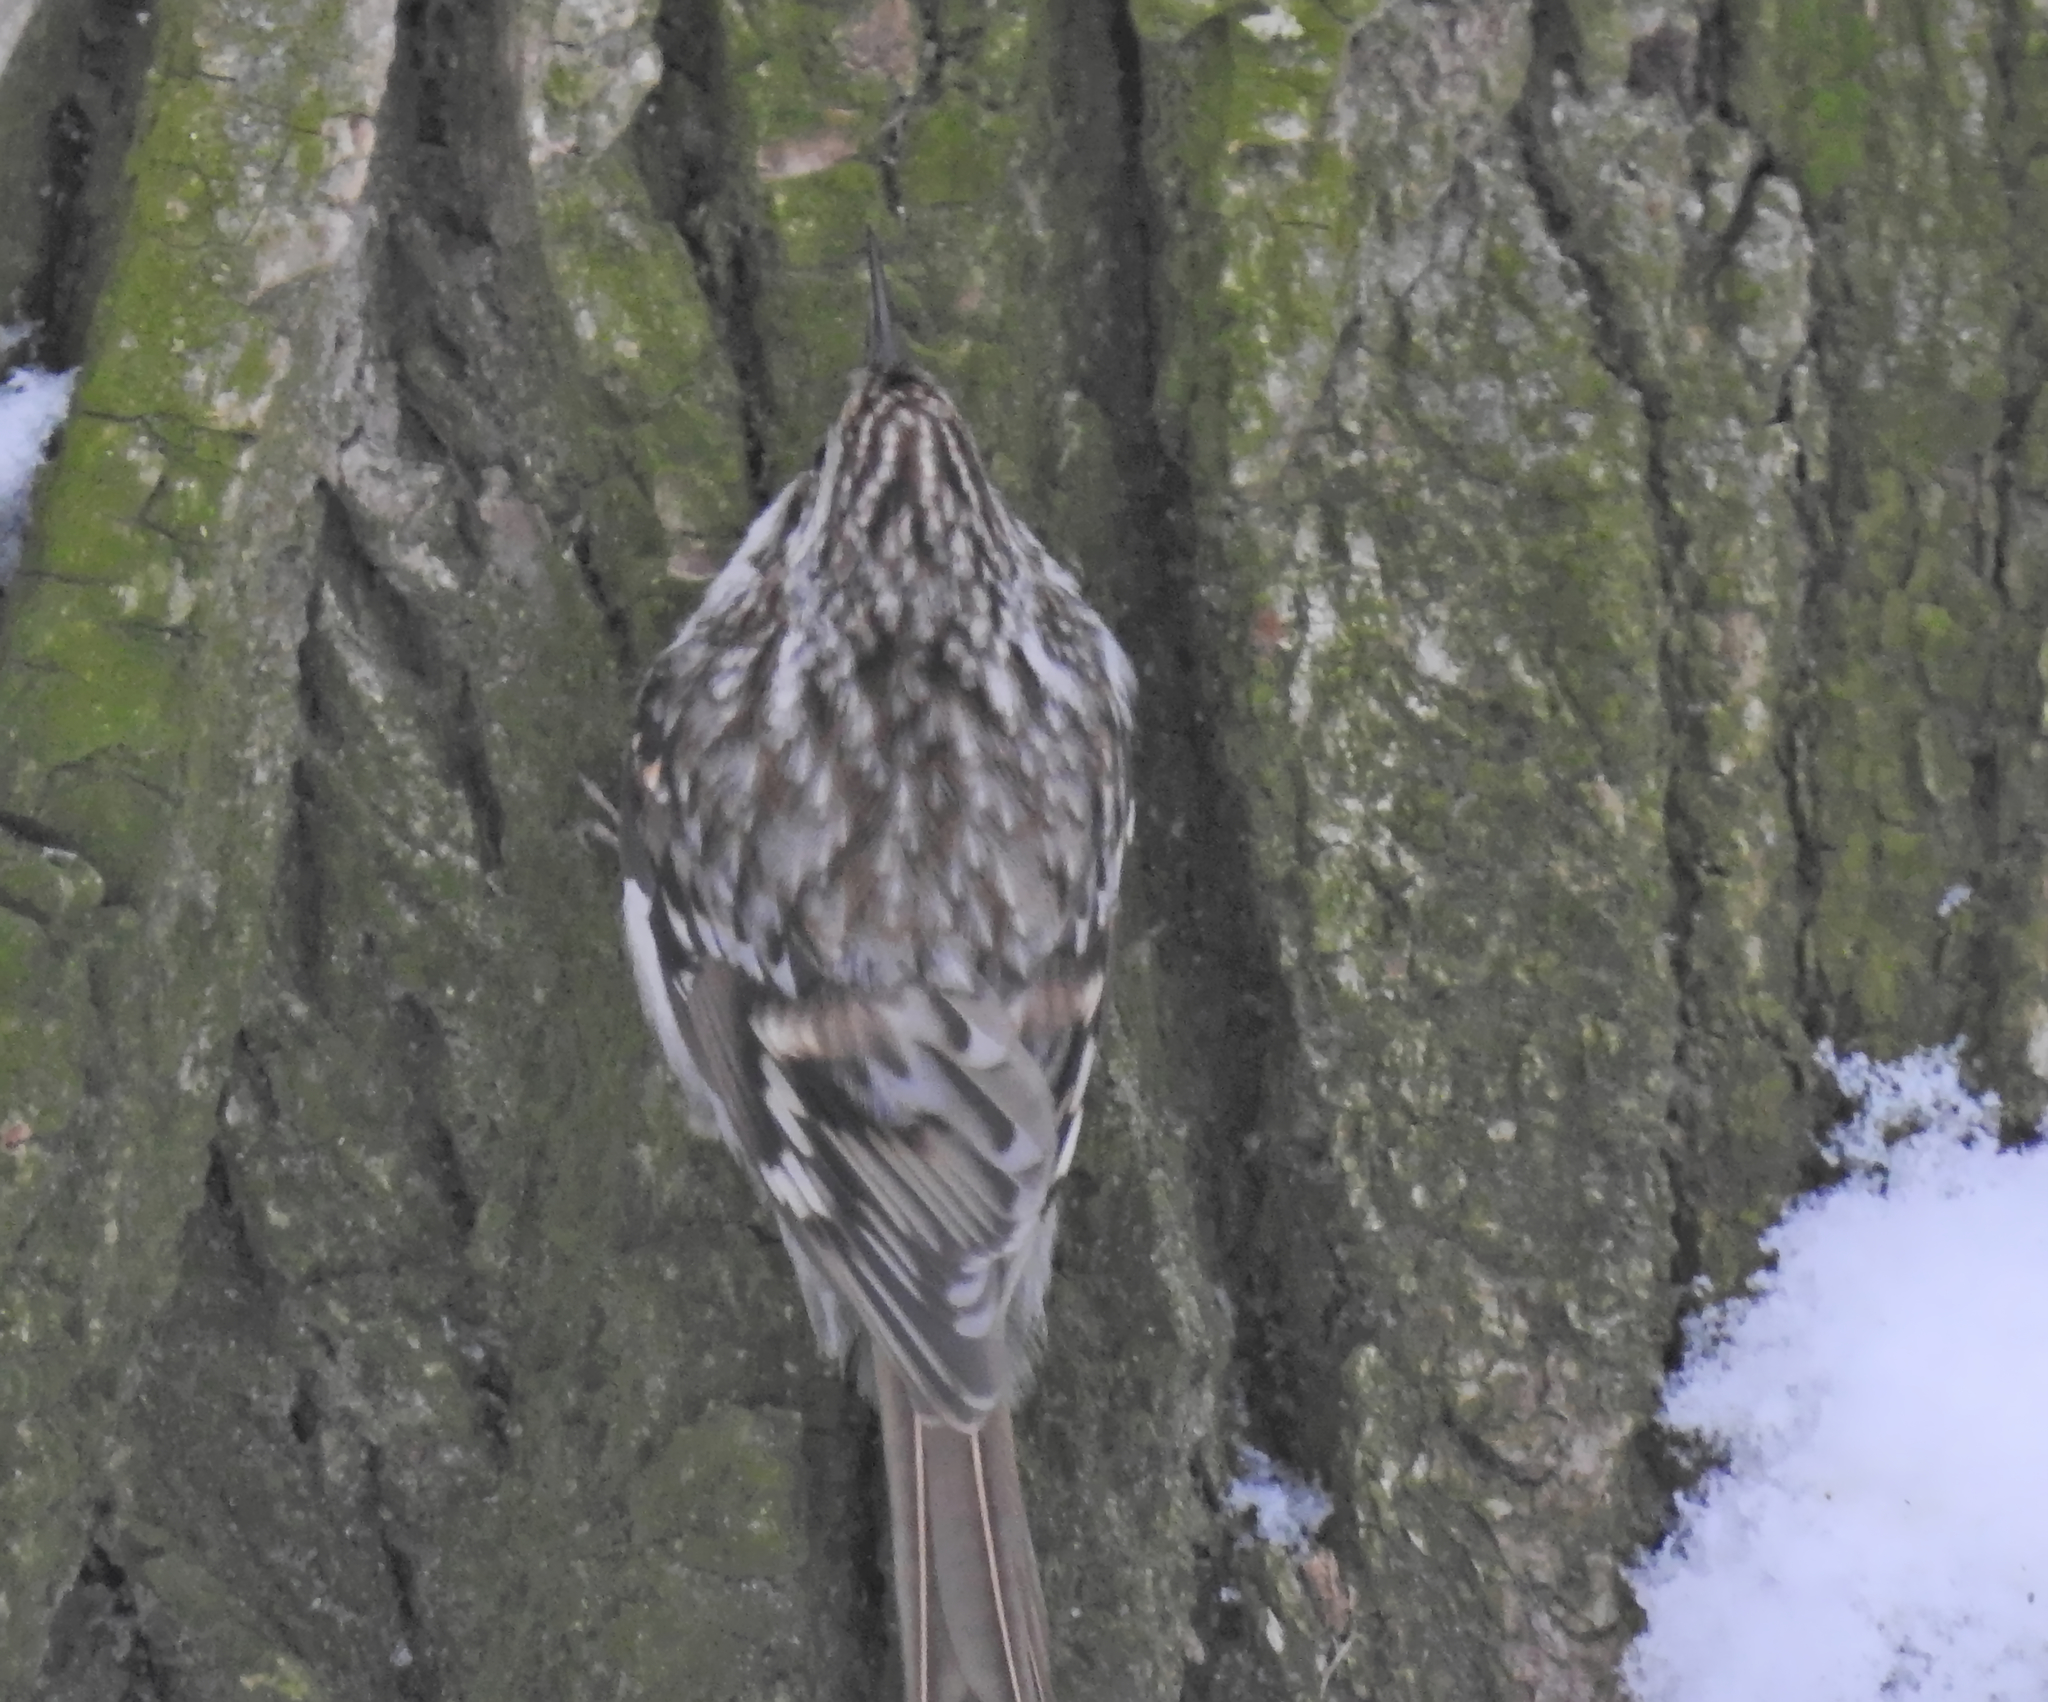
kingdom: Animalia
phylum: Chordata
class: Aves
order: Passeriformes
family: Certhiidae
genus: Certhia
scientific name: Certhia familiaris
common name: Eurasian treecreeper
